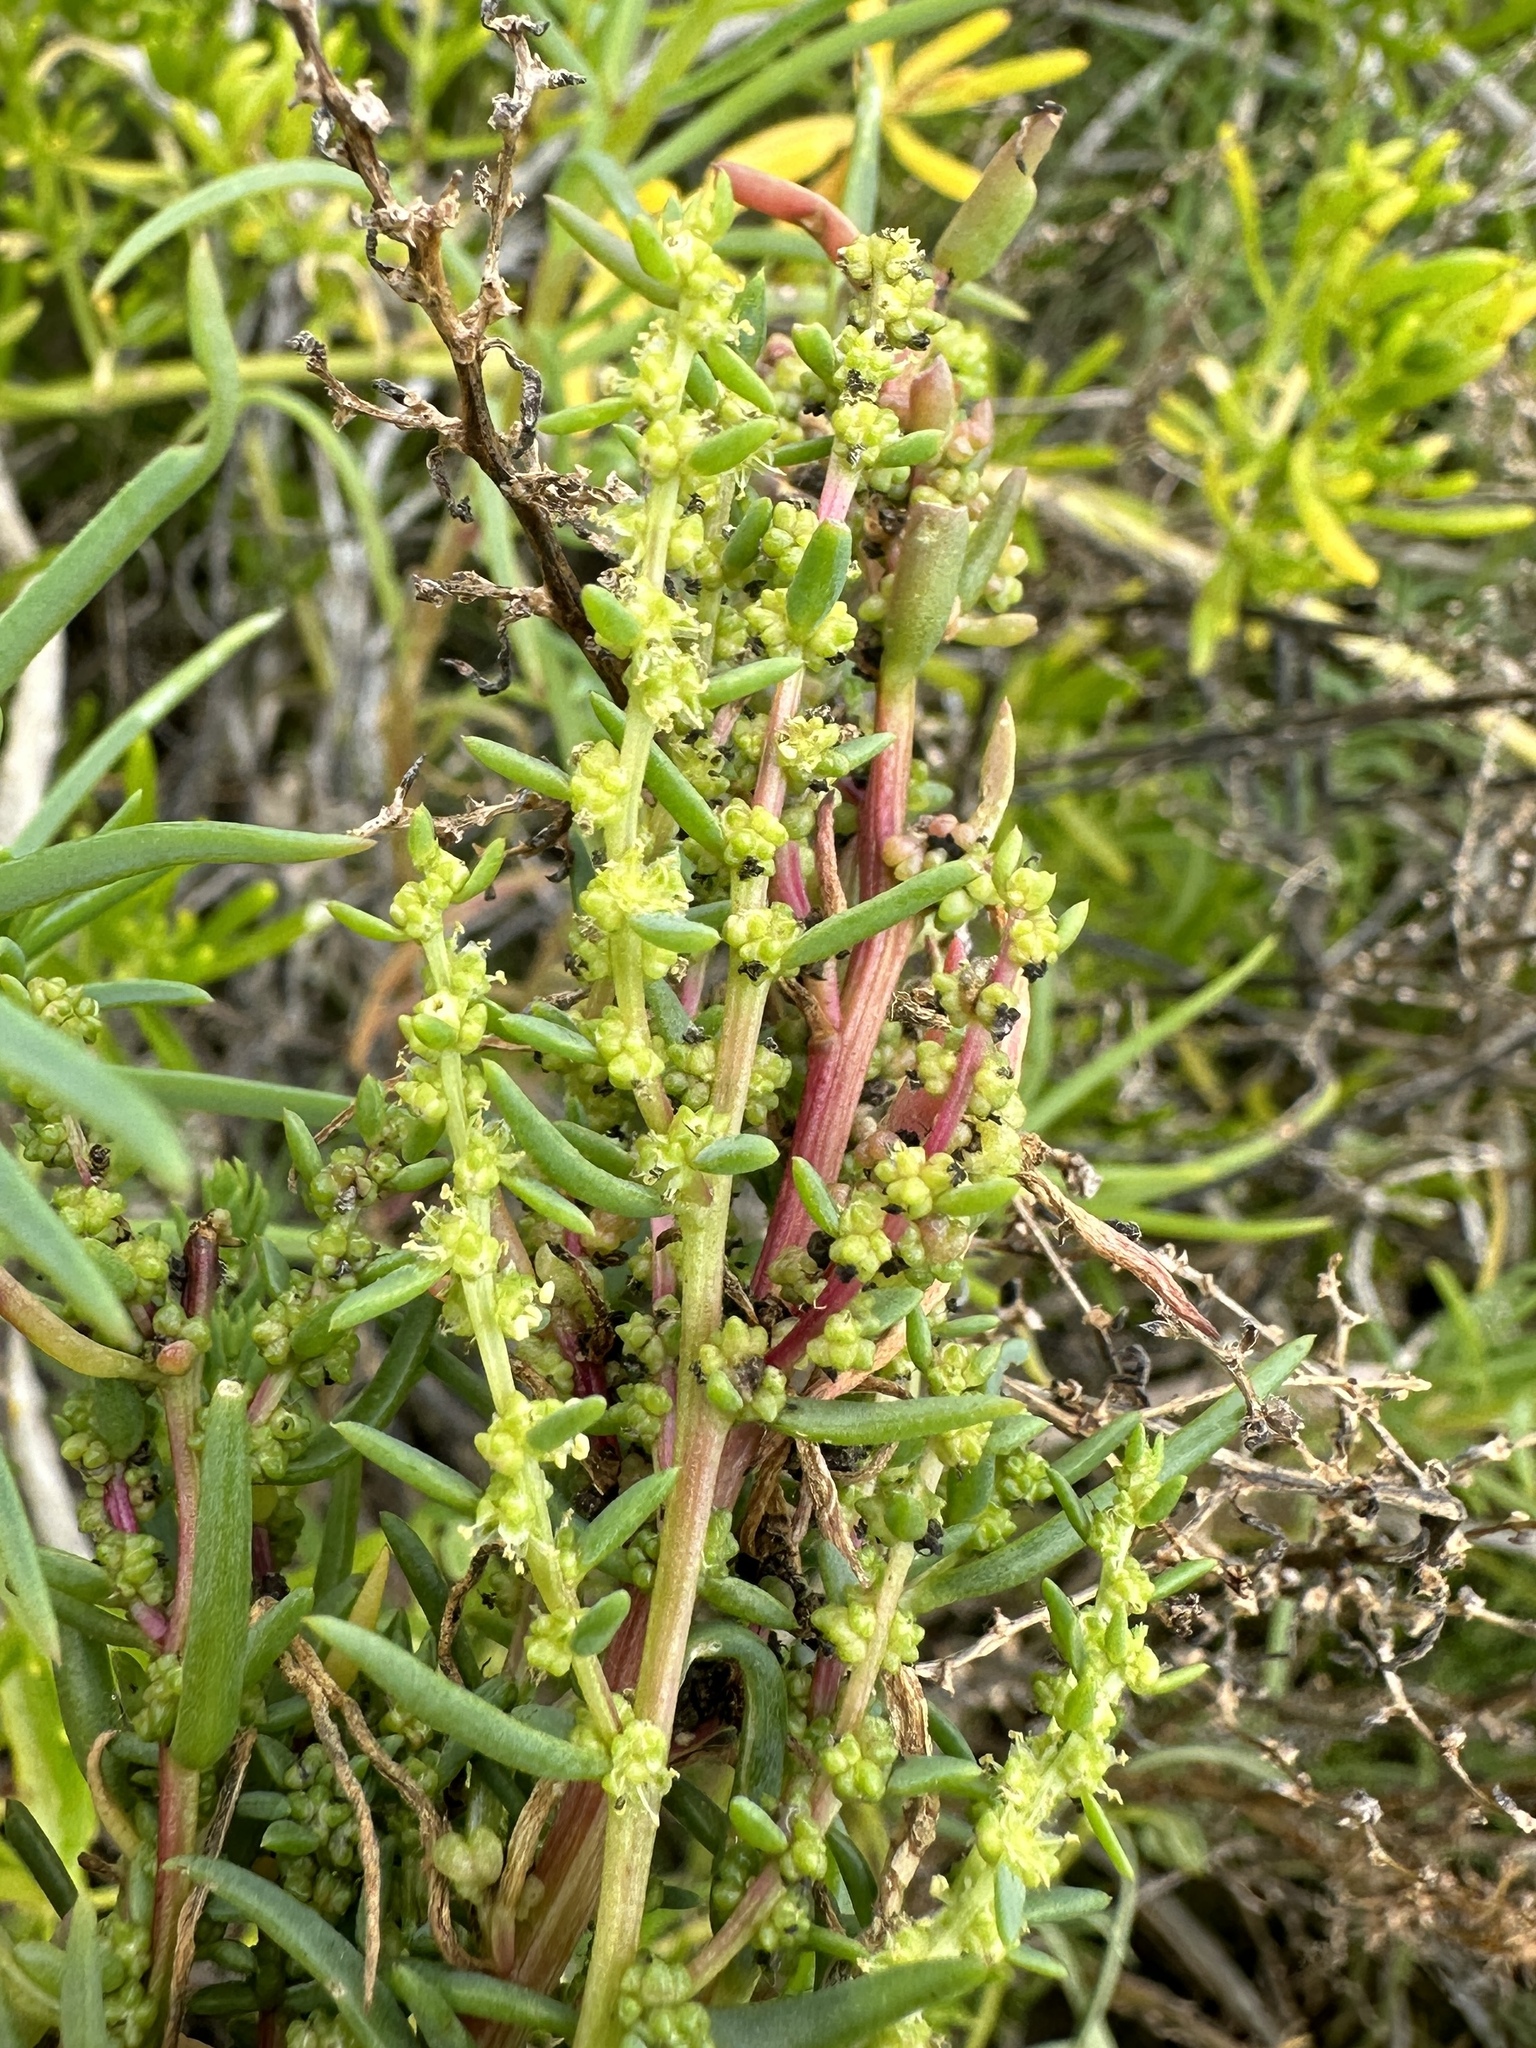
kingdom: Plantae
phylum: Tracheophyta
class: Magnoliopsida
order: Caryophyllales
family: Amaranthaceae
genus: Suaeda
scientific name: Suaeda linearis
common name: Annual seepweed
